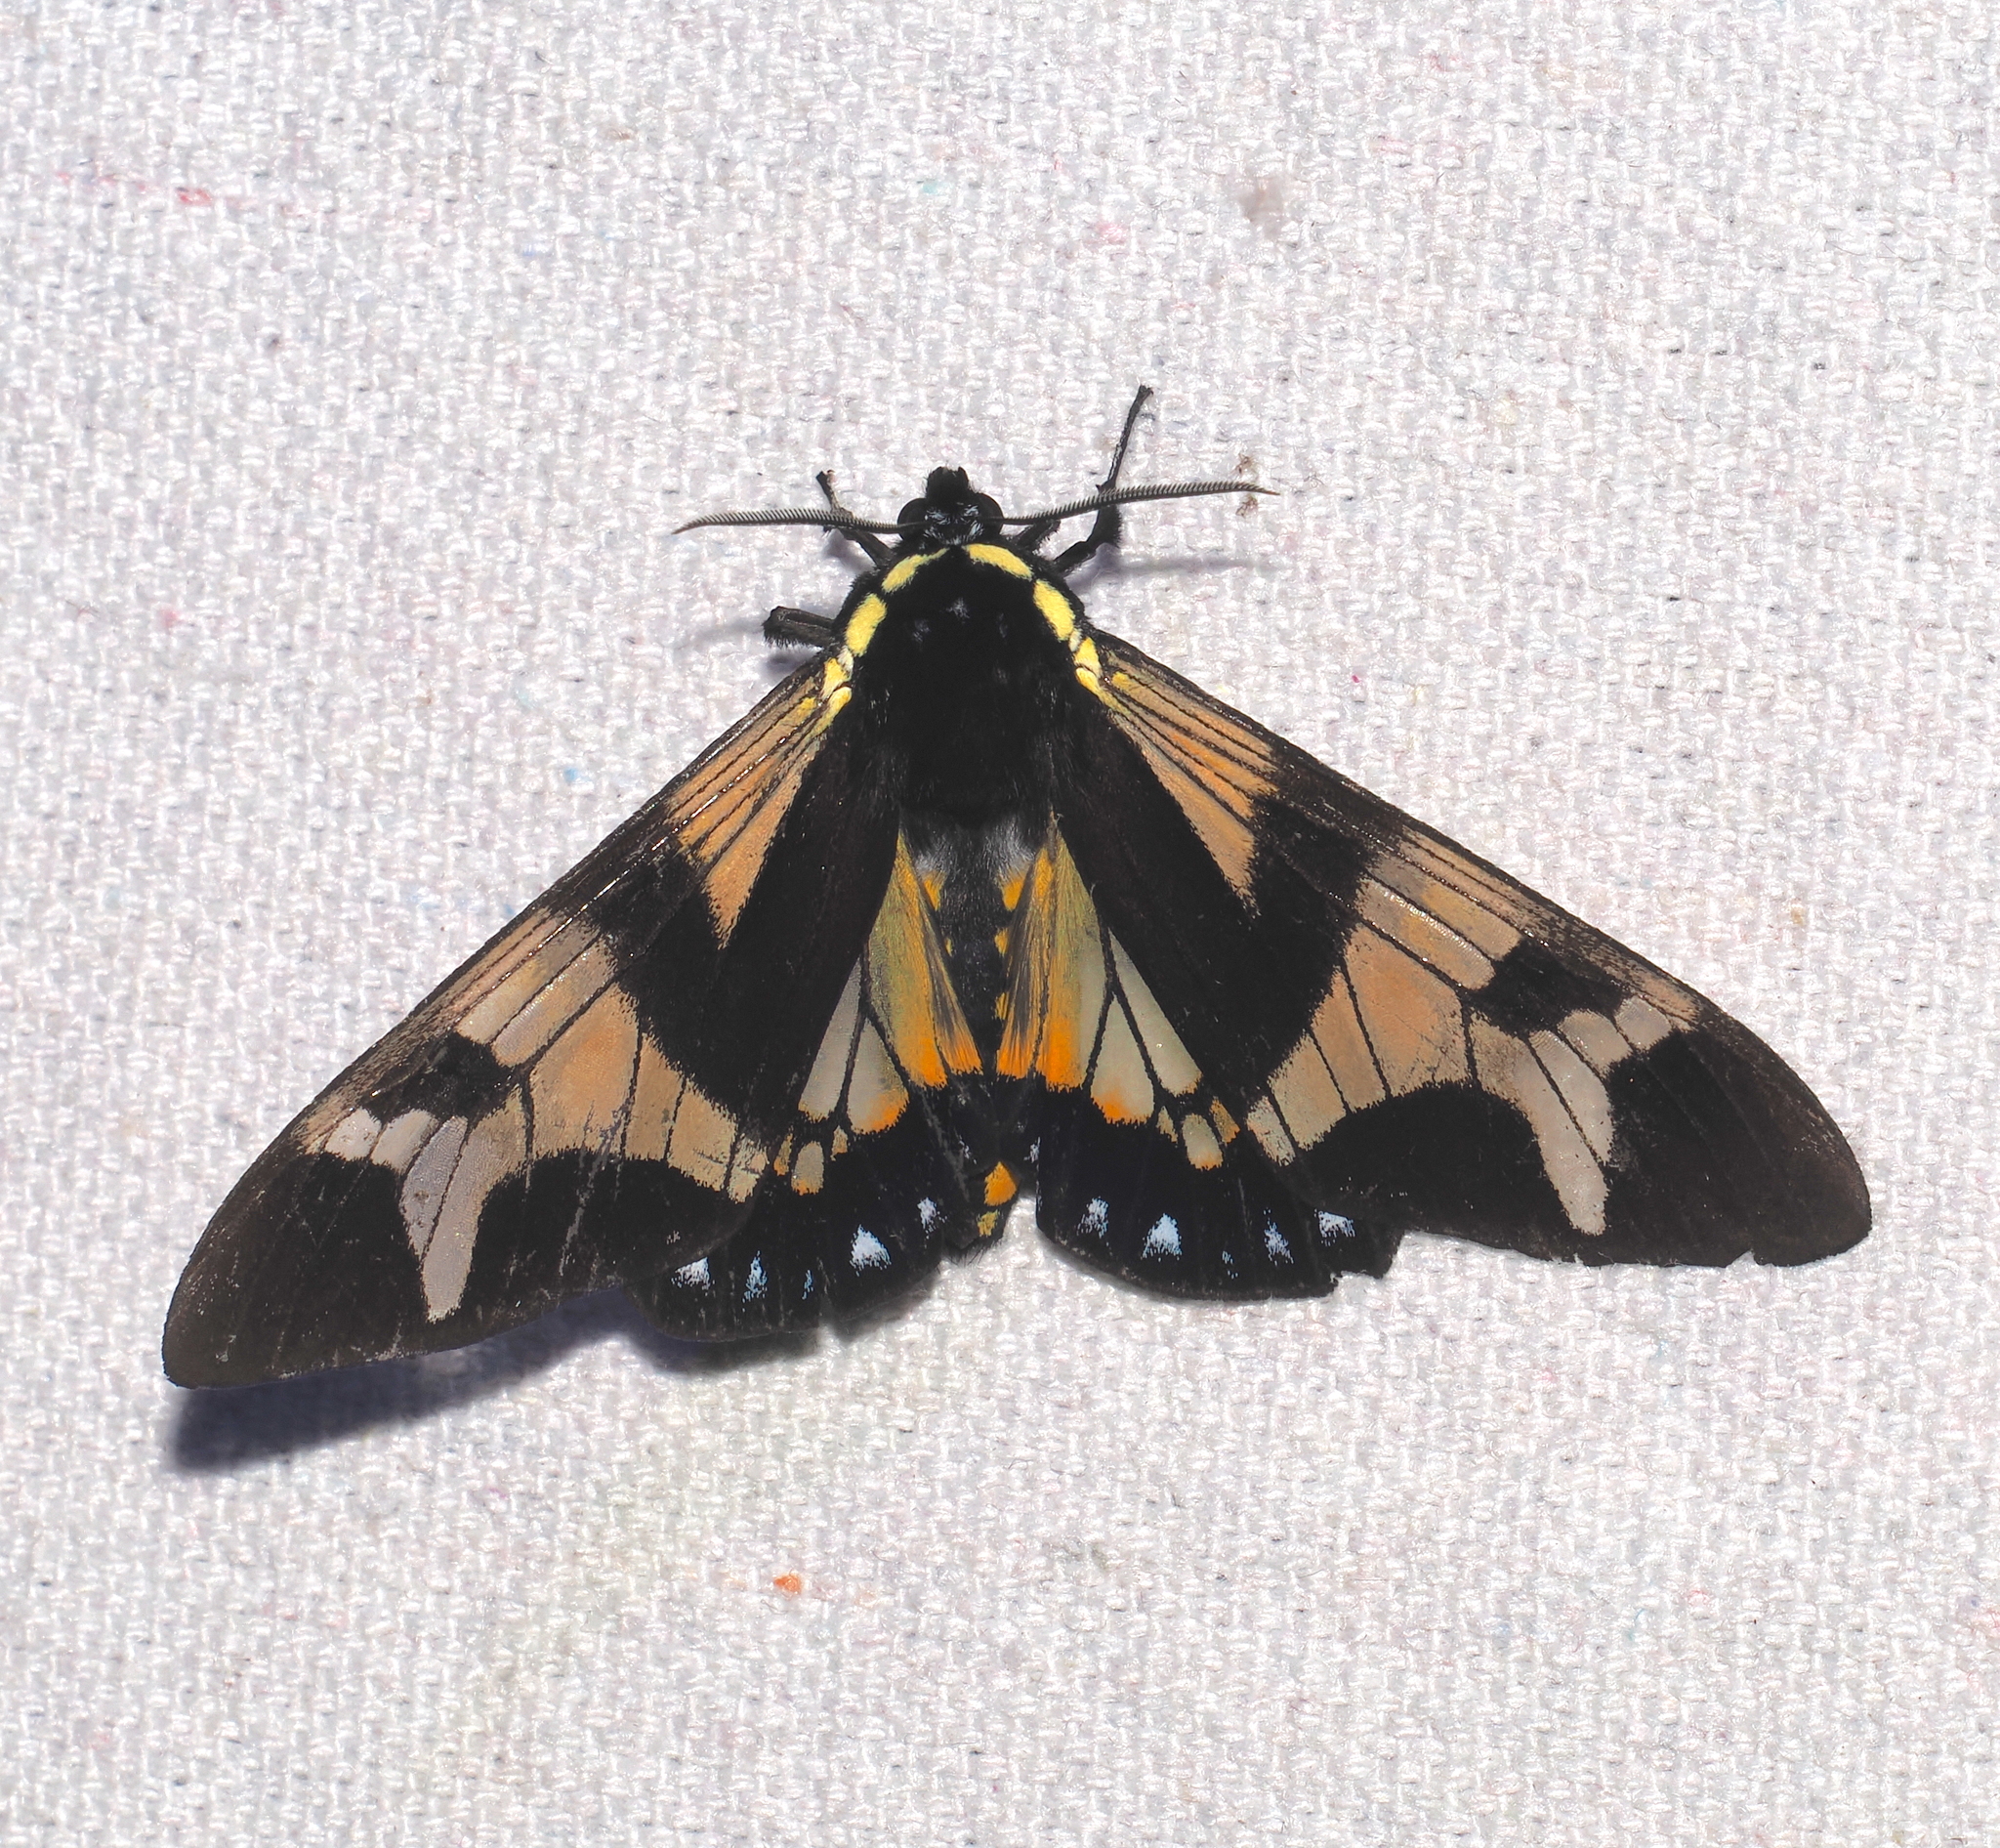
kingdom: Animalia
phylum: Arthropoda
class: Insecta
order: Lepidoptera
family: Erebidae
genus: Dysschema
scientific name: Dysschema arema
